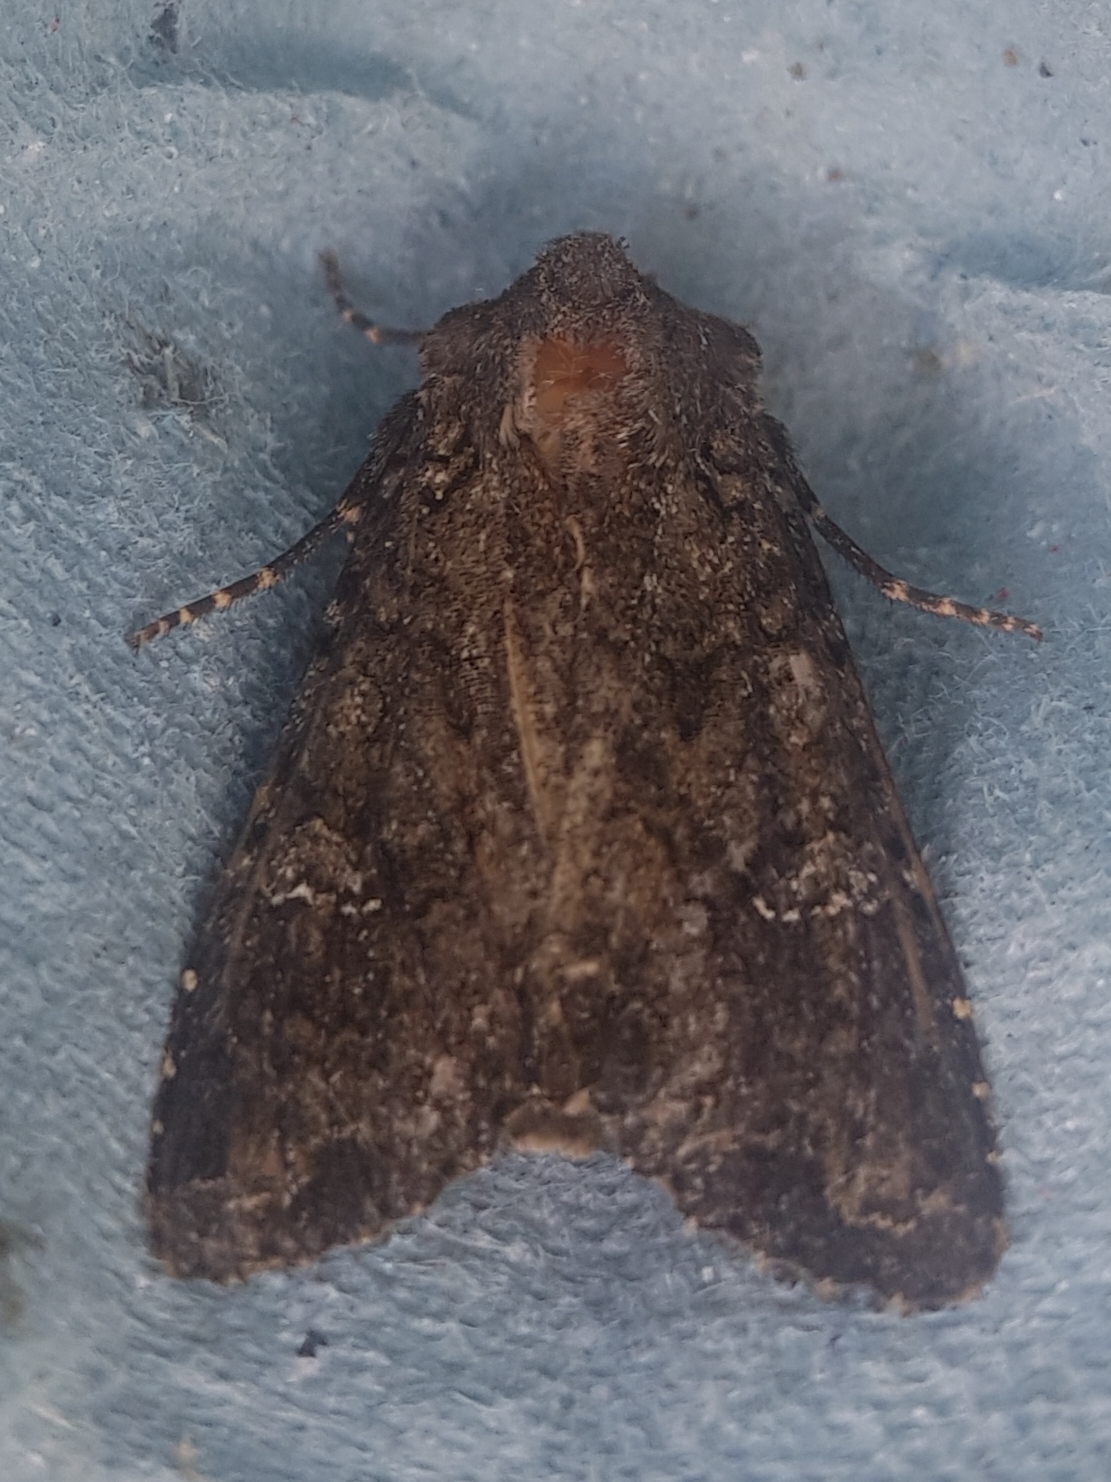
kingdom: Animalia
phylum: Arthropoda
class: Insecta
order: Lepidoptera
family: Noctuidae
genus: Mamestra
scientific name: Mamestra brassicae
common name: Cabbage moth
